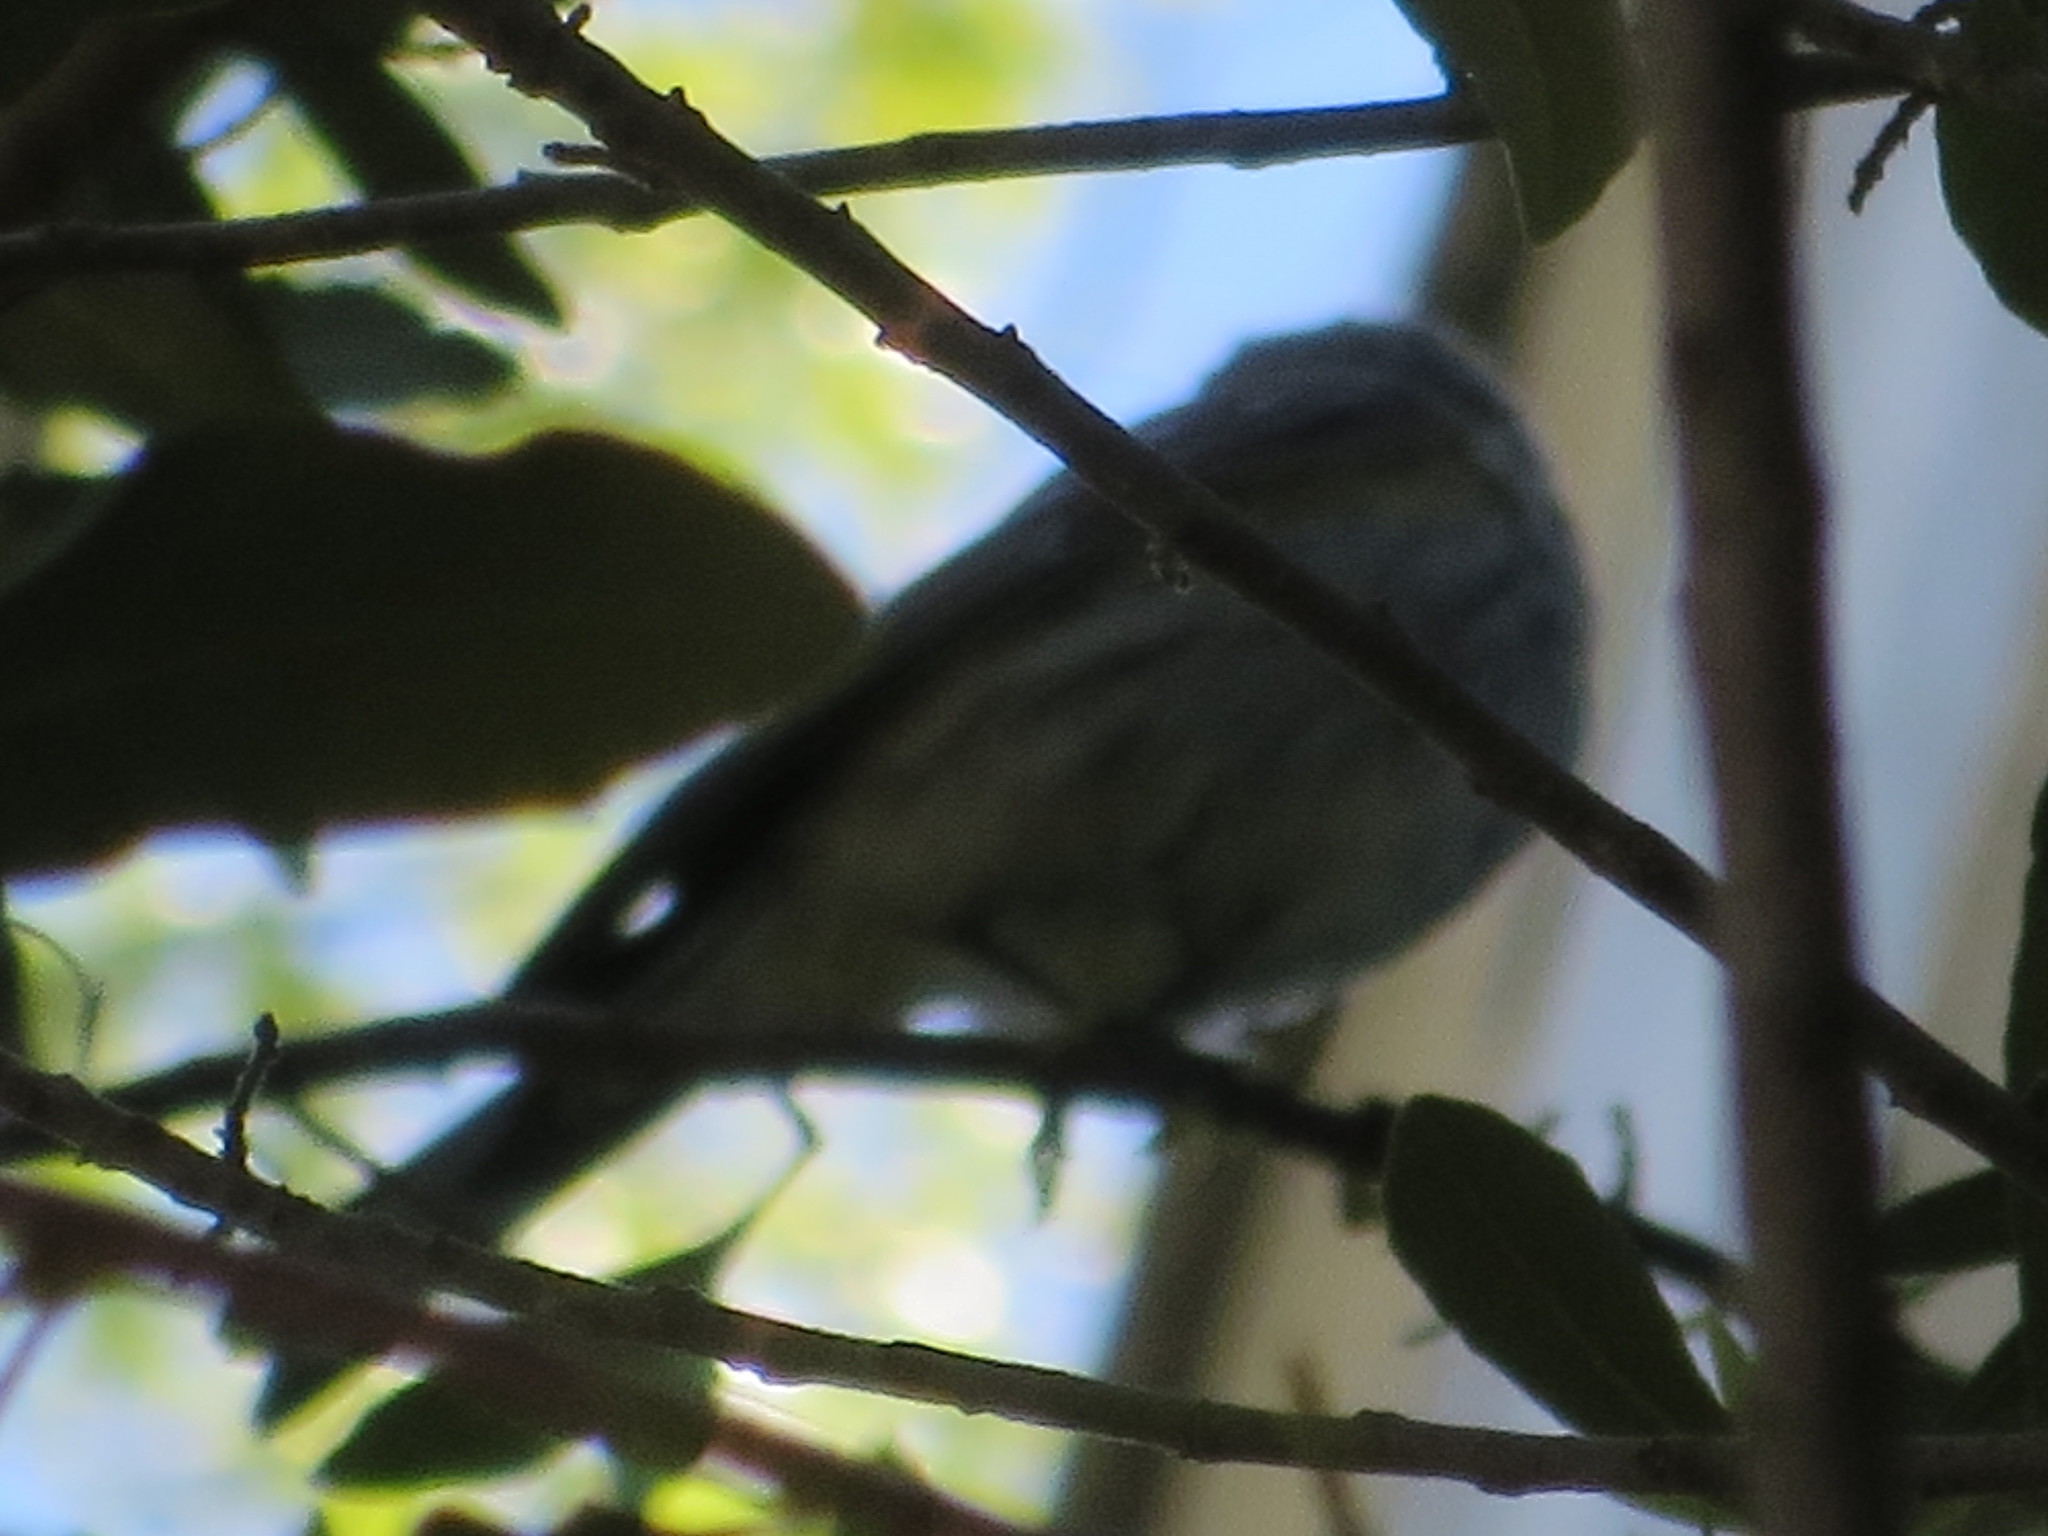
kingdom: Animalia
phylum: Chordata
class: Aves
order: Passeriformes
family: Parulidae
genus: Setophaga
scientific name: Setophaga coronata
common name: Myrtle warbler
